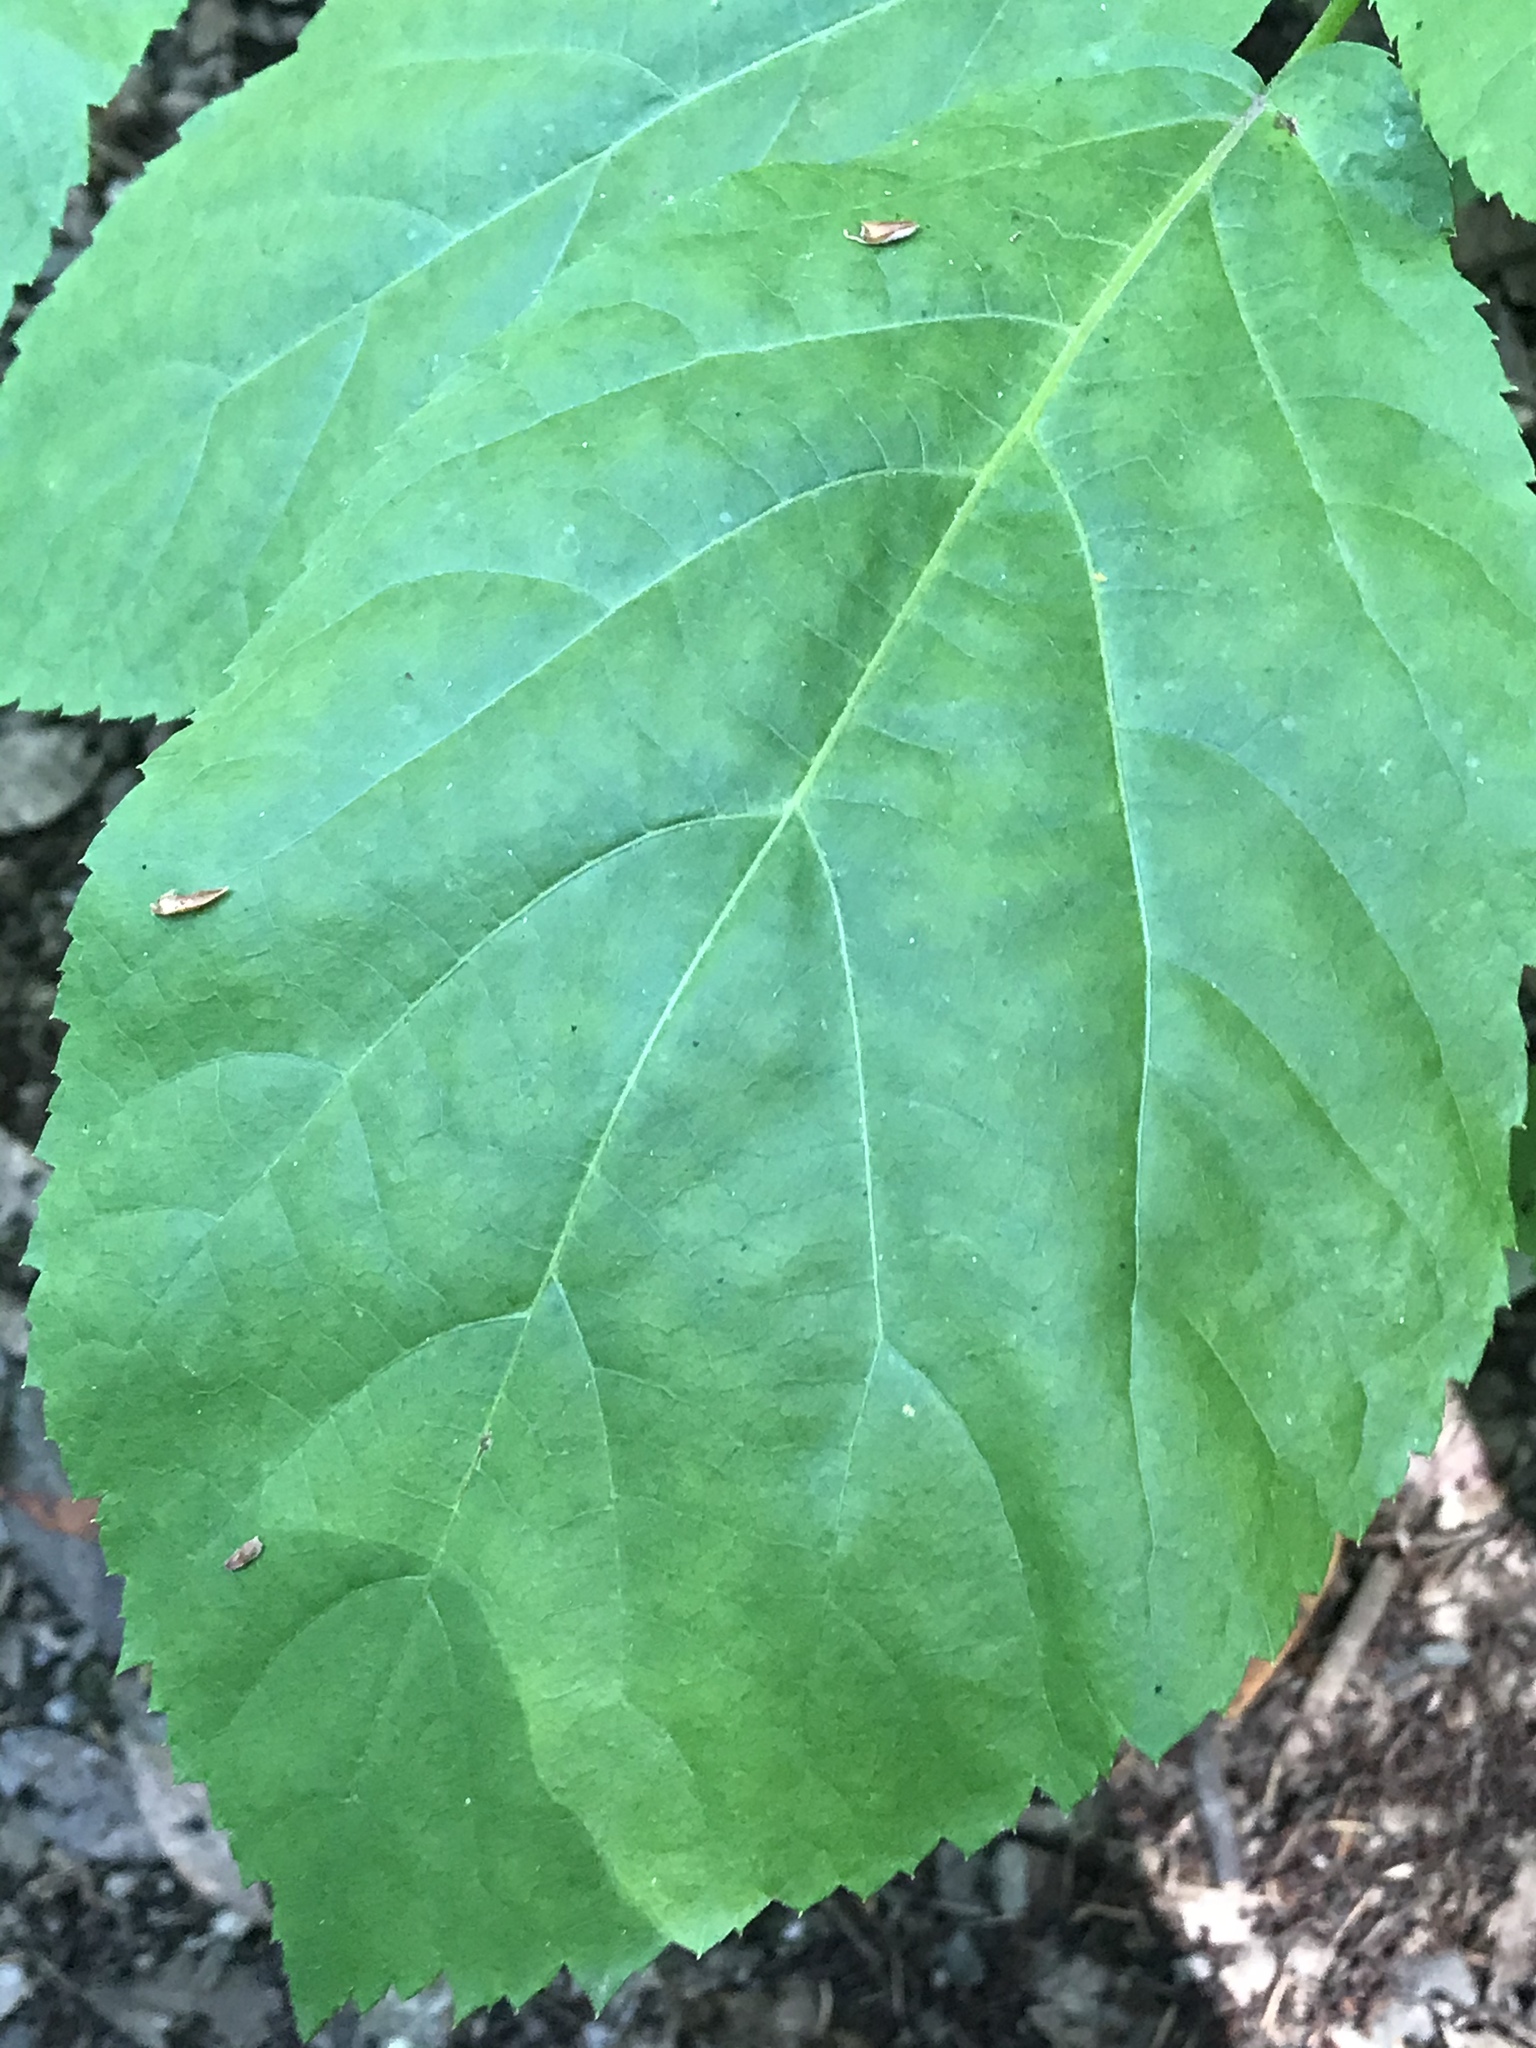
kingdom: Plantae
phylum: Tracheophyta
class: Magnoliopsida
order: Apiales
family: Araliaceae
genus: Aralia
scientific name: Aralia californica
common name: California-ginseng
